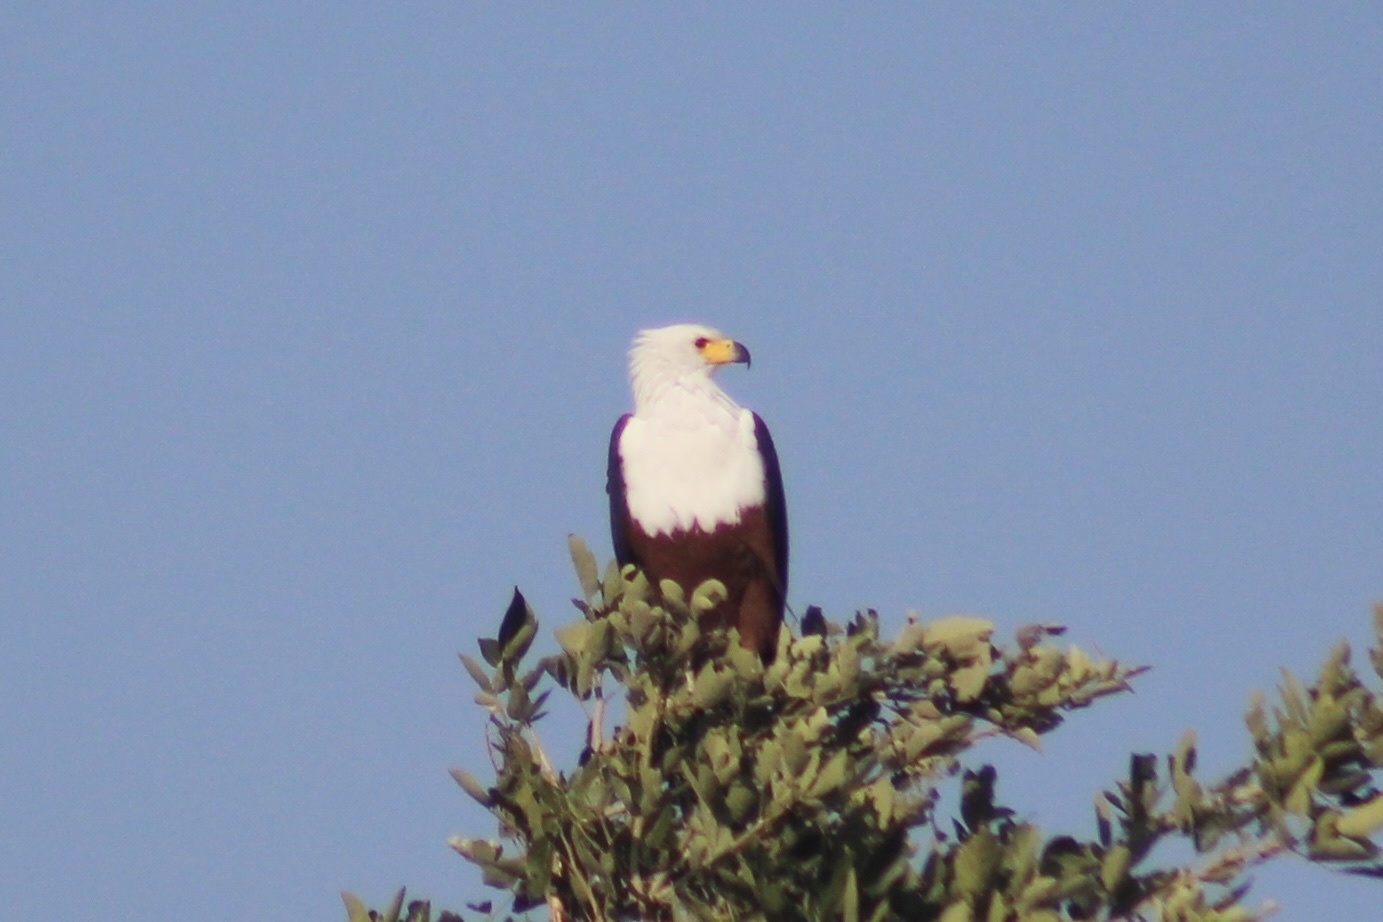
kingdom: Animalia
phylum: Chordata
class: Aves
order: Accipitriformes
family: Accipitridae
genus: Haliaeetus
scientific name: Haliaeetus vocifer
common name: African fish eagle
